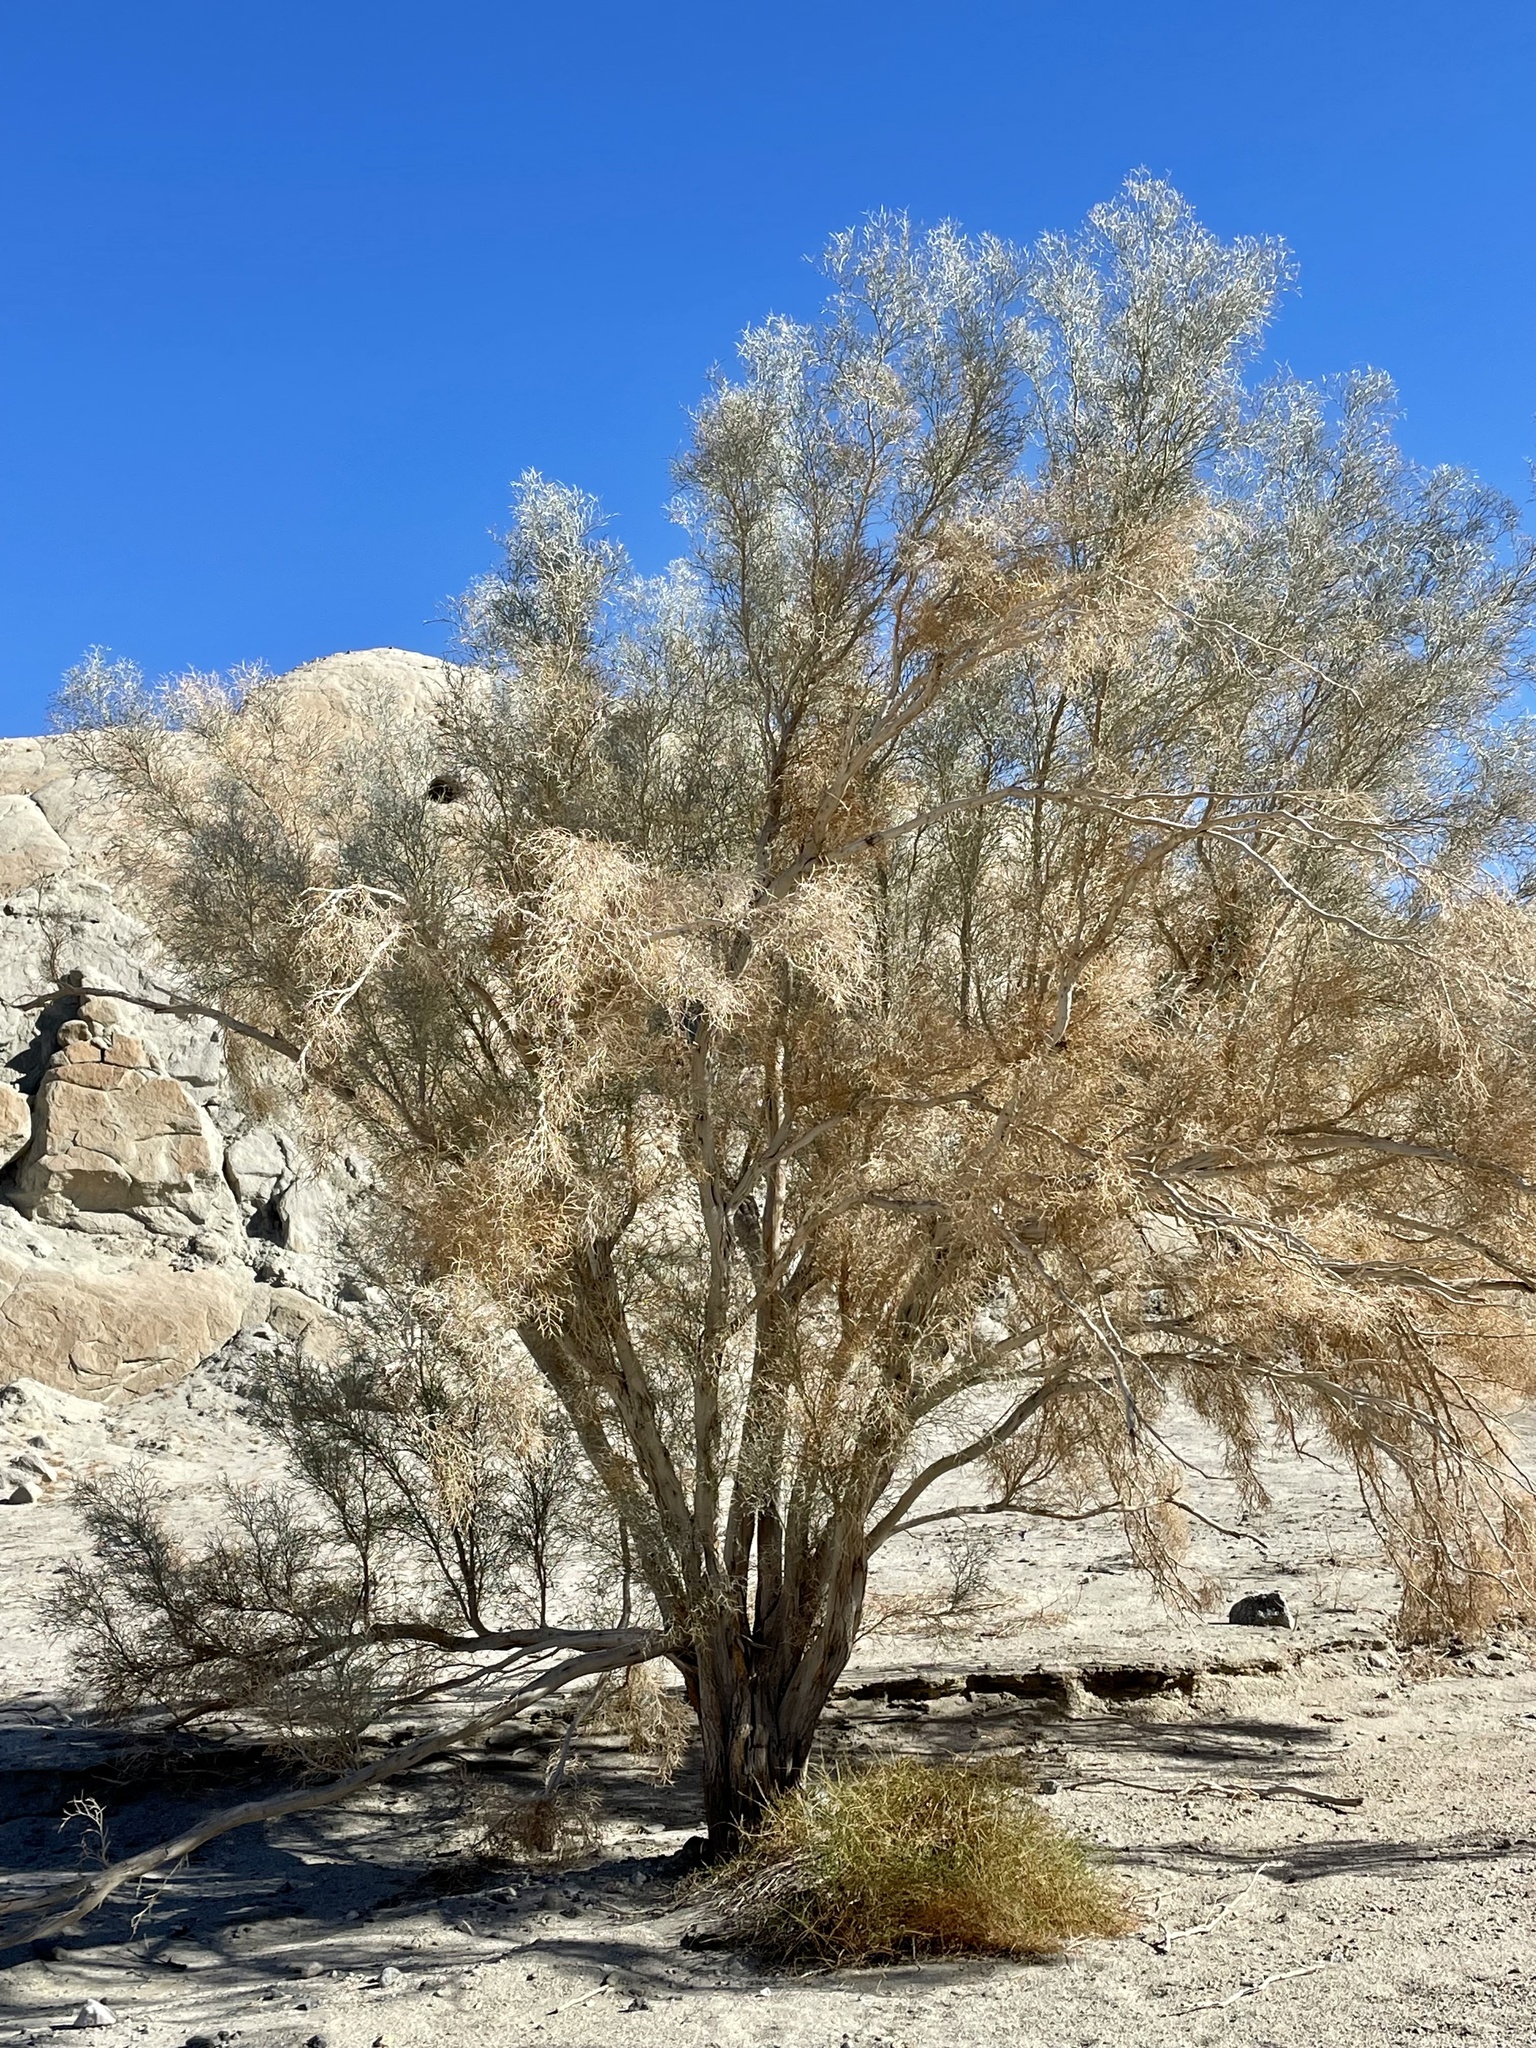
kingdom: Plantae
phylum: Tracheophyta
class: Magnoliopsida
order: Fabales
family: Fabaceae
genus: Psorothamnus
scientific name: Psorothamnus spinosus
